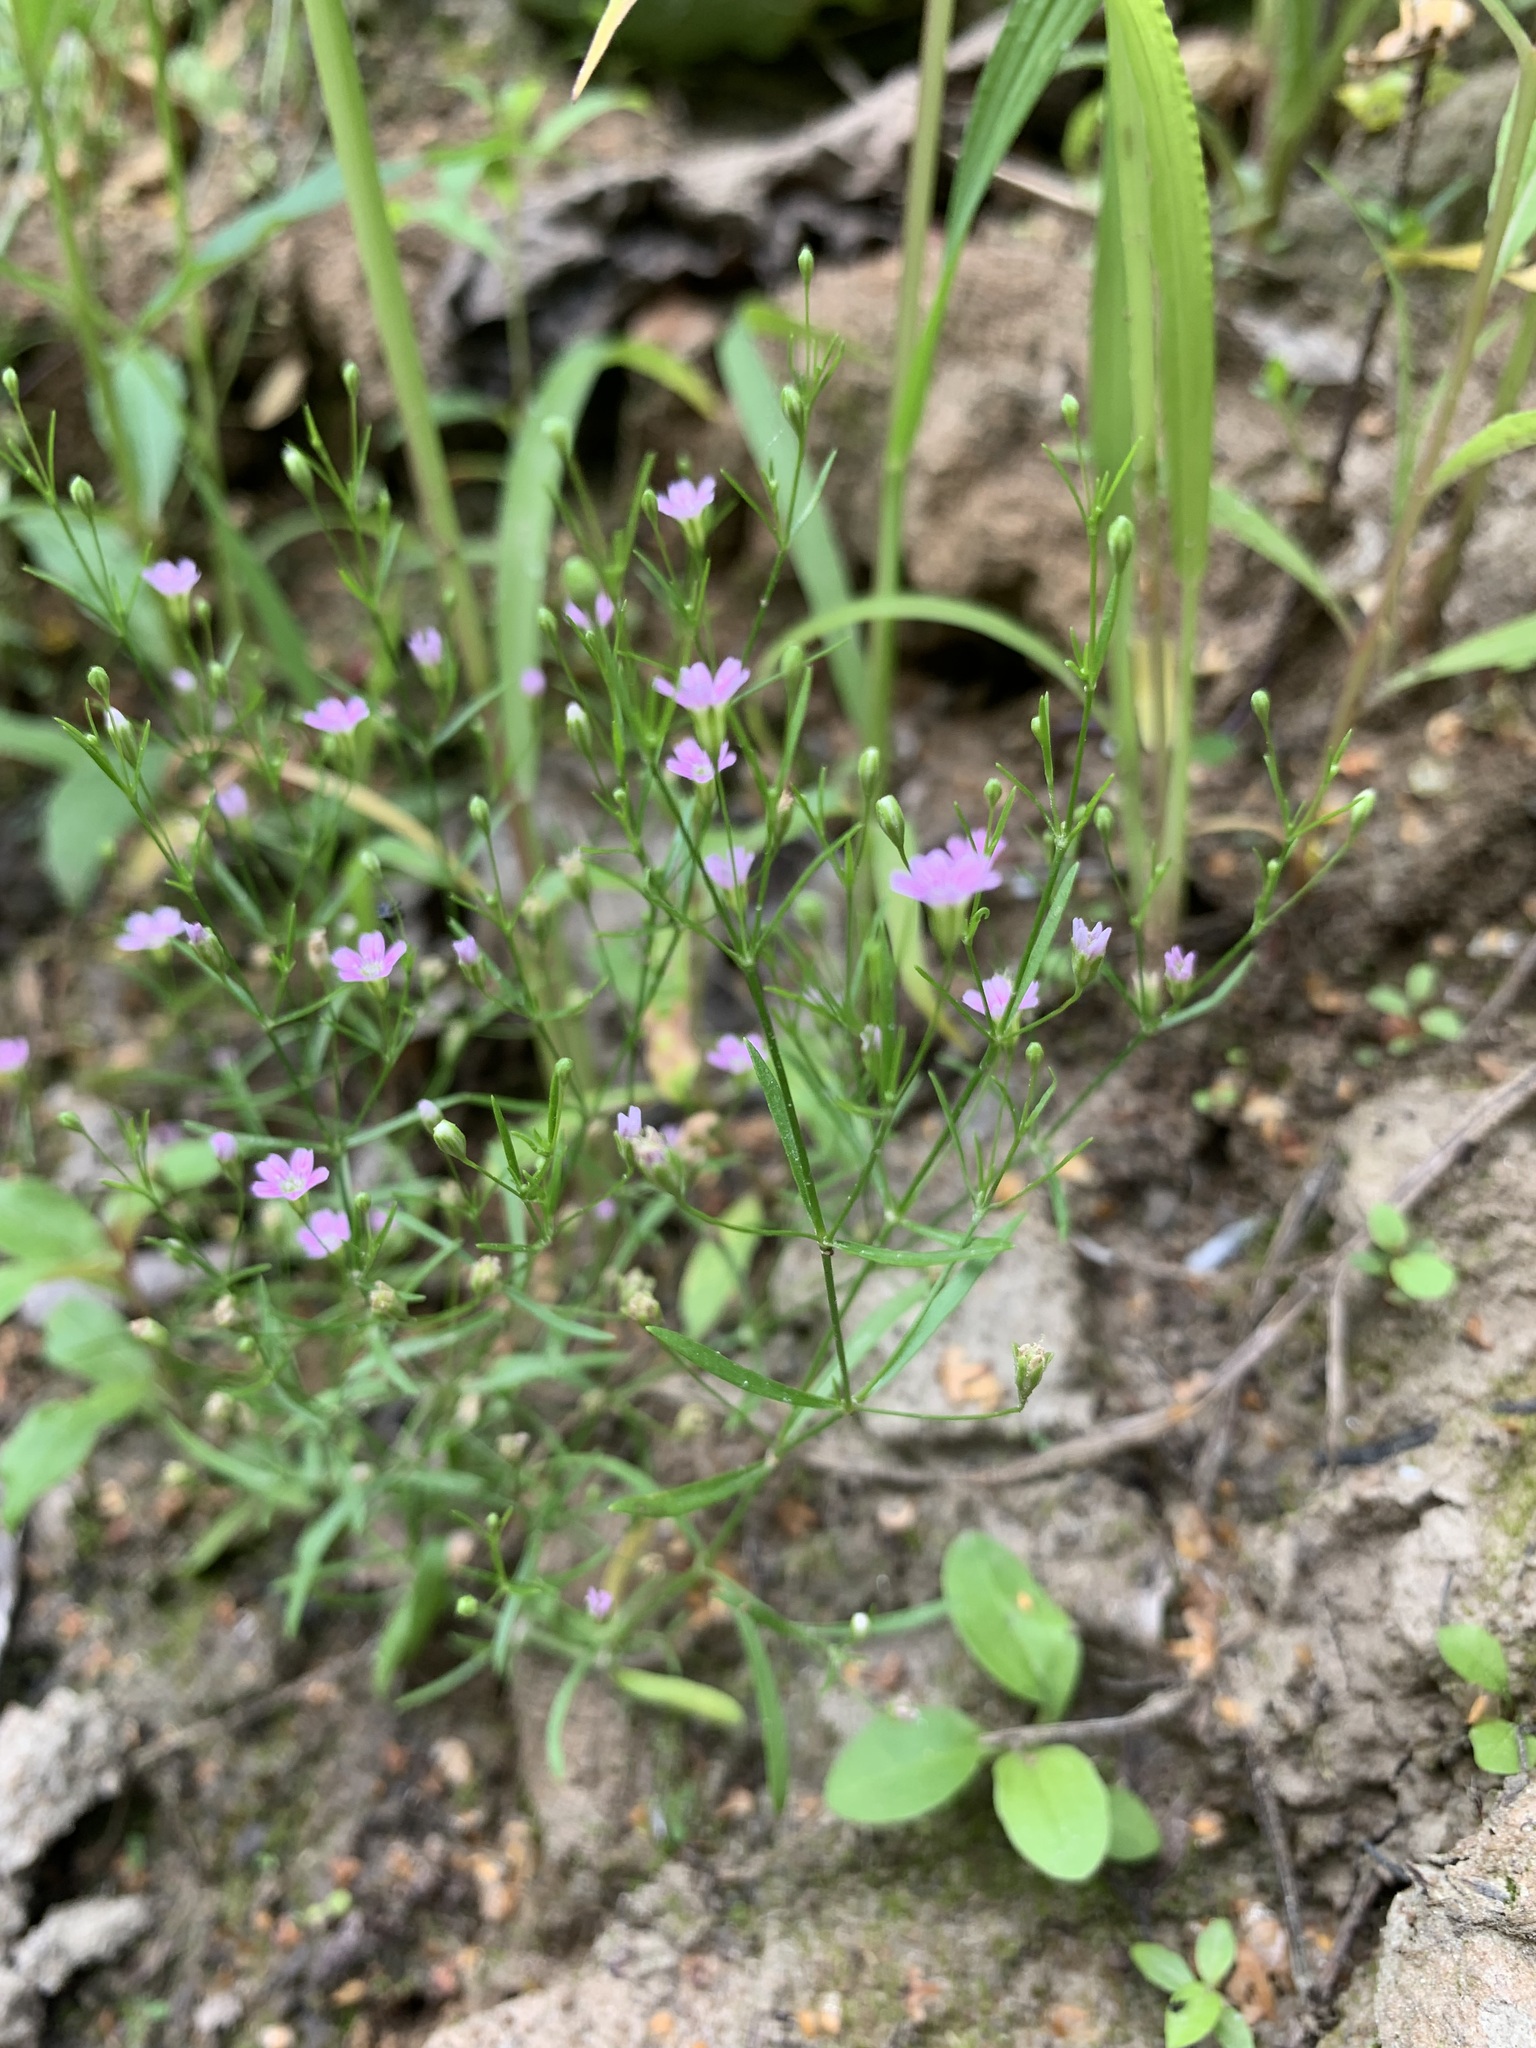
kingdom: Plantae
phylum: Tracheophyta
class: Magnoliopsida
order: Caryophyllales
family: Caryophyllaceae
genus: Psammophiliella
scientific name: Psammophiliella muralis
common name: Cushion baby's-breath
